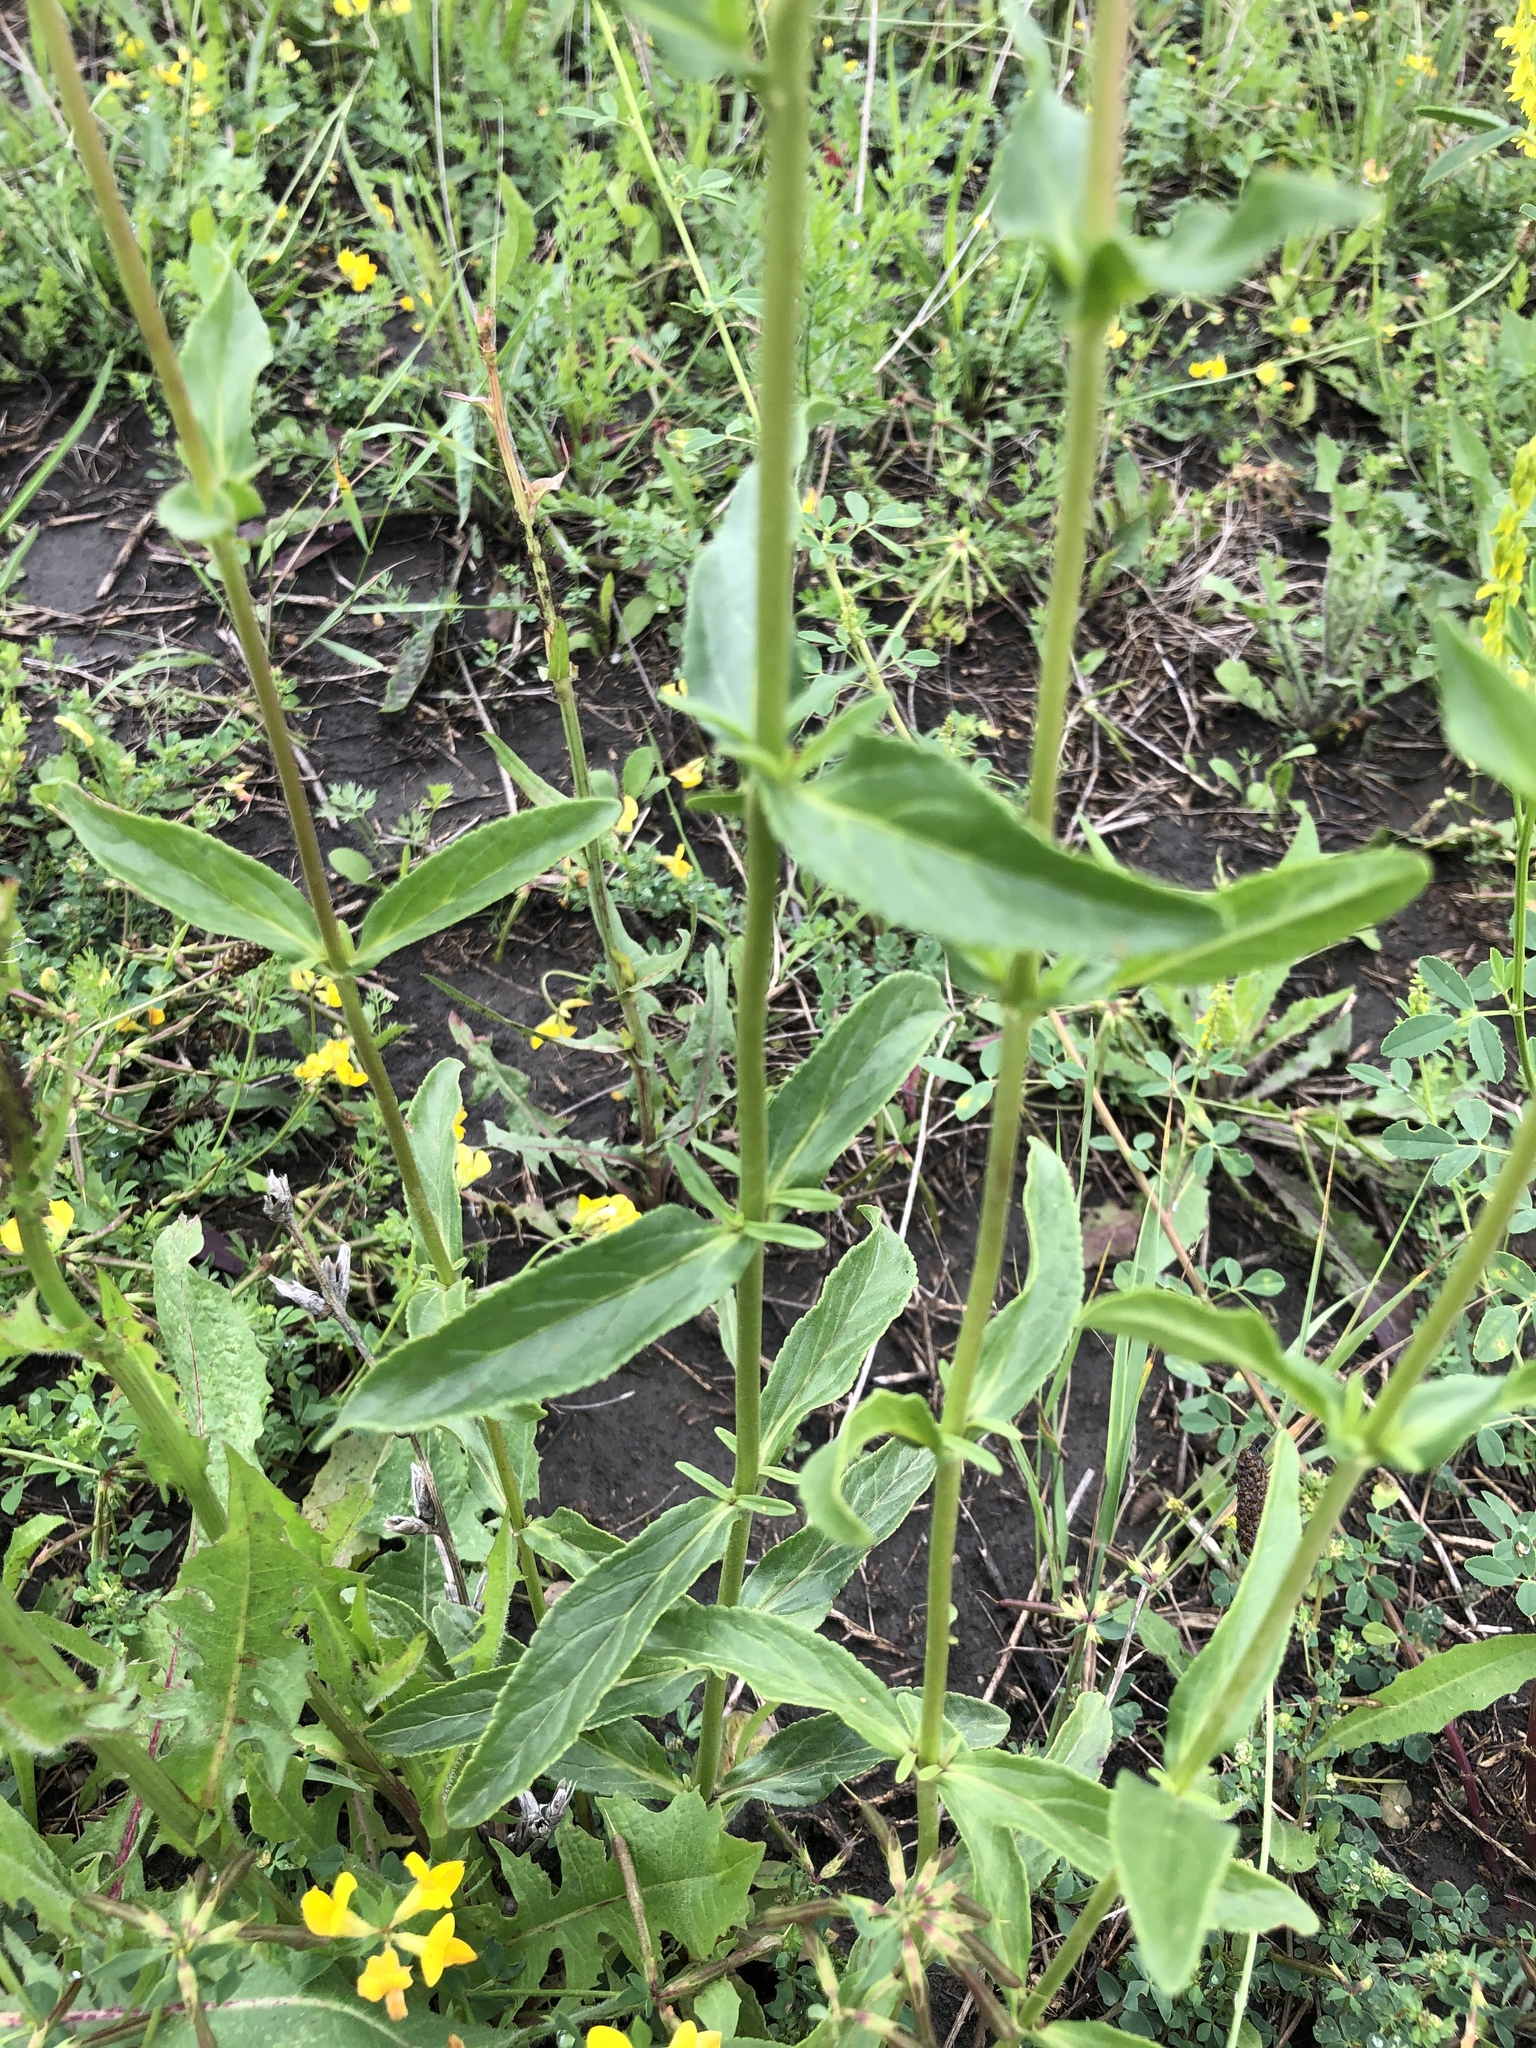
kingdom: Plantae
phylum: Tracheophyta
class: Magnoliopsida
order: Lamiales
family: Plantaginaceae
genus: Veronica
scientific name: Veronica orchidea
